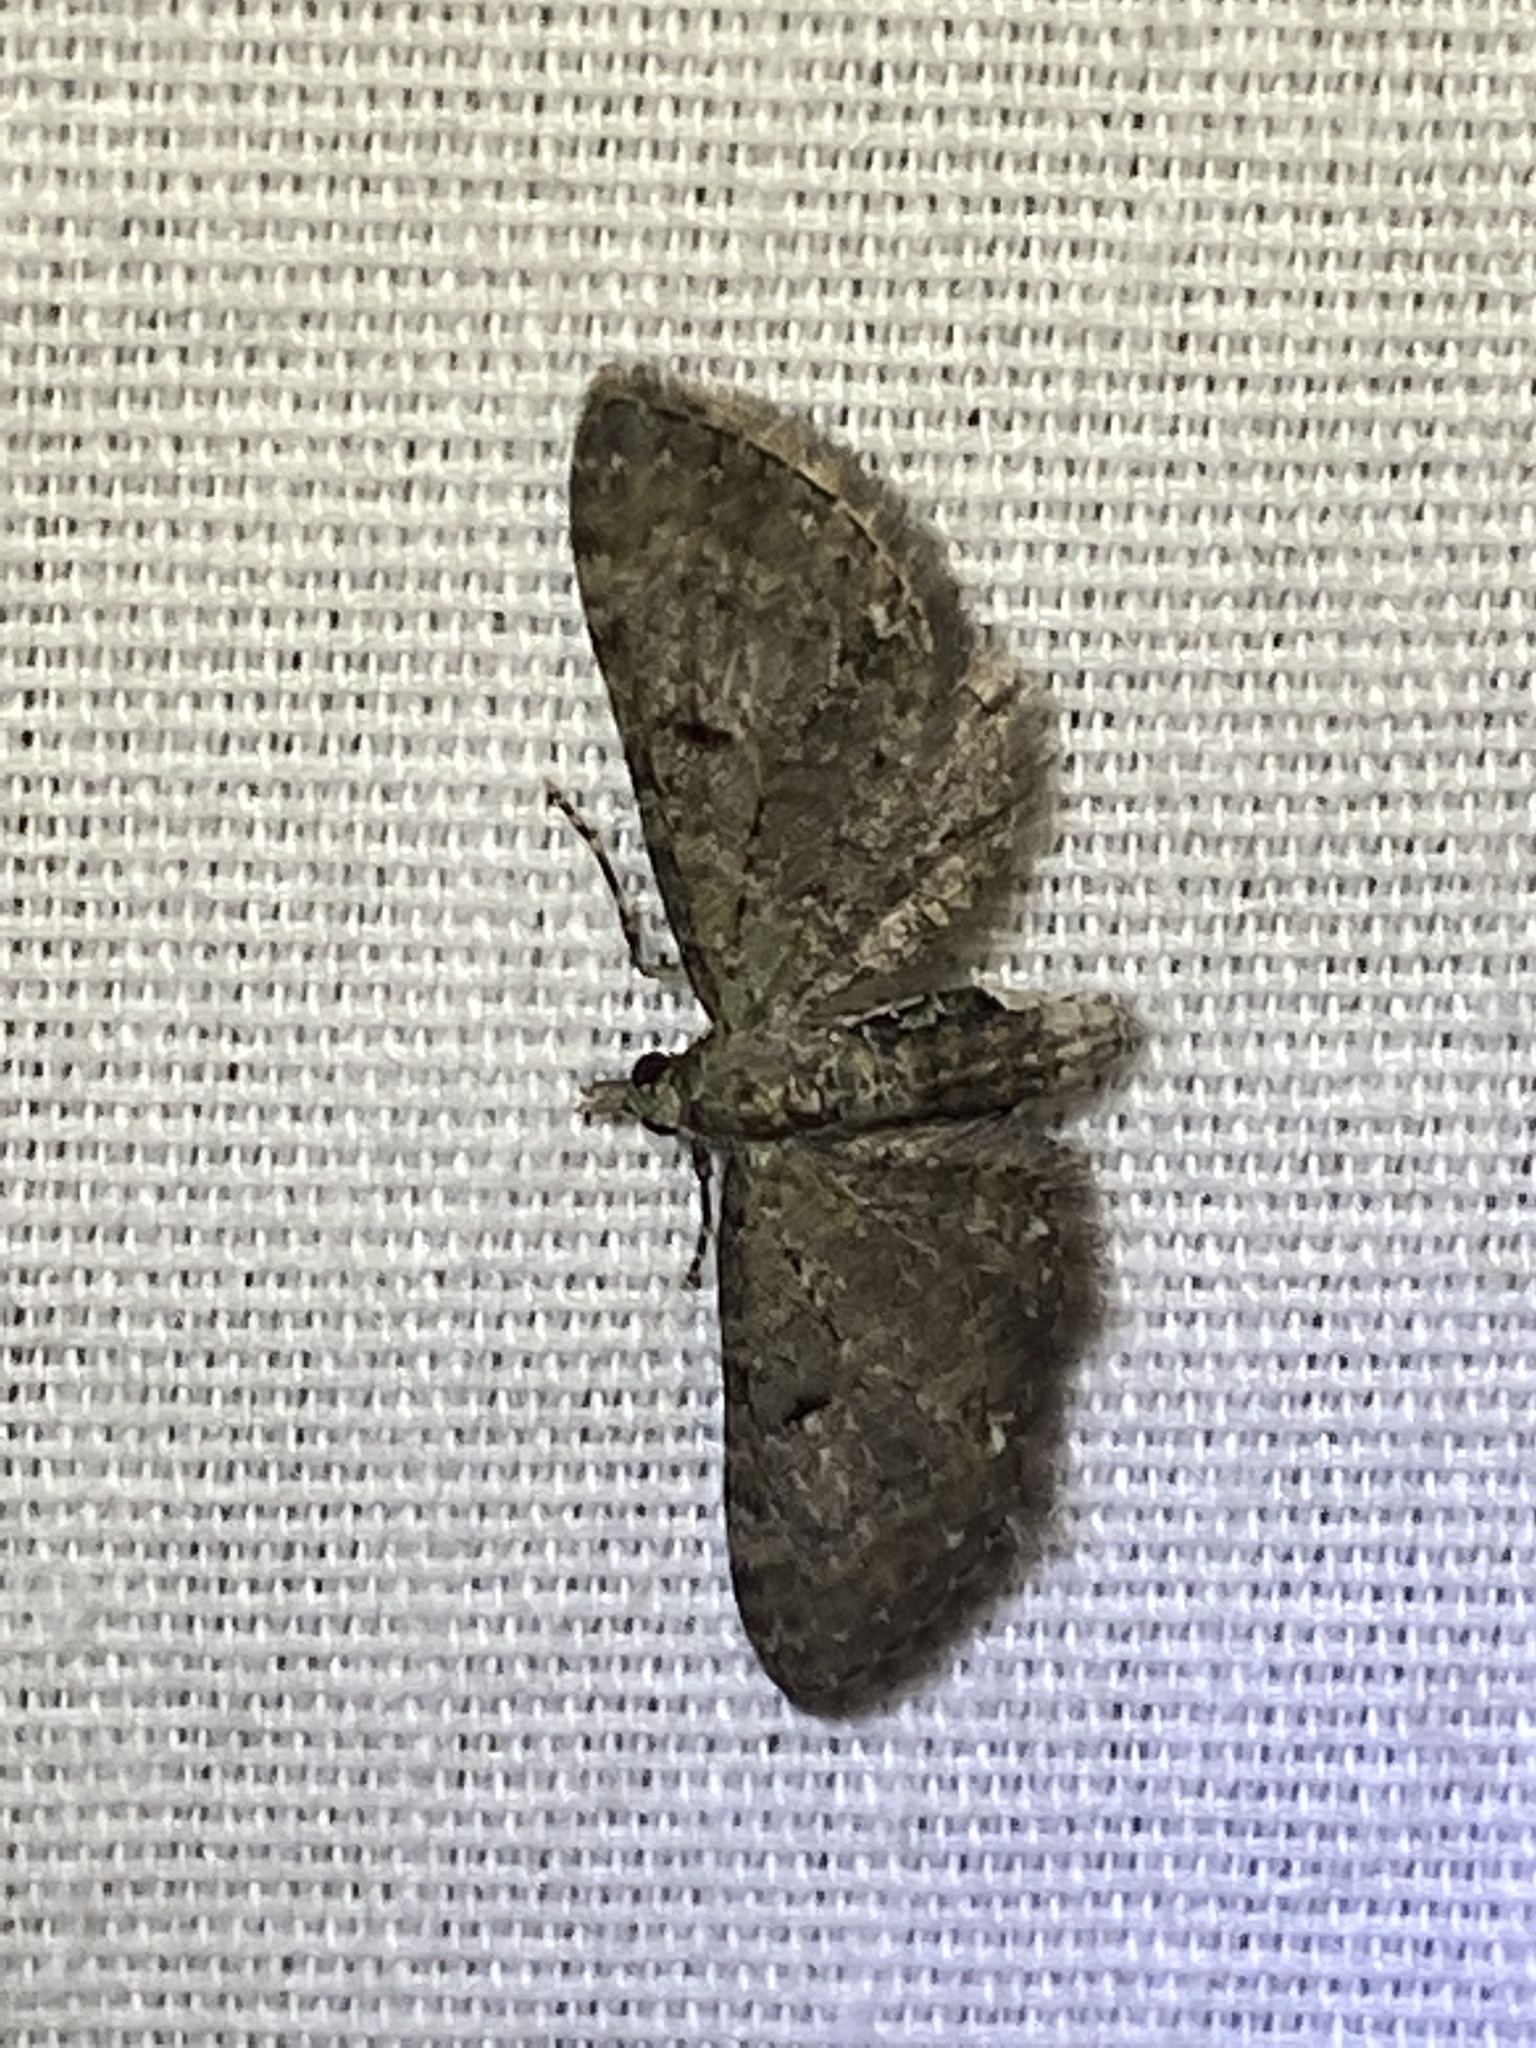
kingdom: Animalia
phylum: Arthropoda
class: Insecta
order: Lepidoptera
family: Geometridae
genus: Eupithecia
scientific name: Eupithecia miserulata
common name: Common eupithecia
